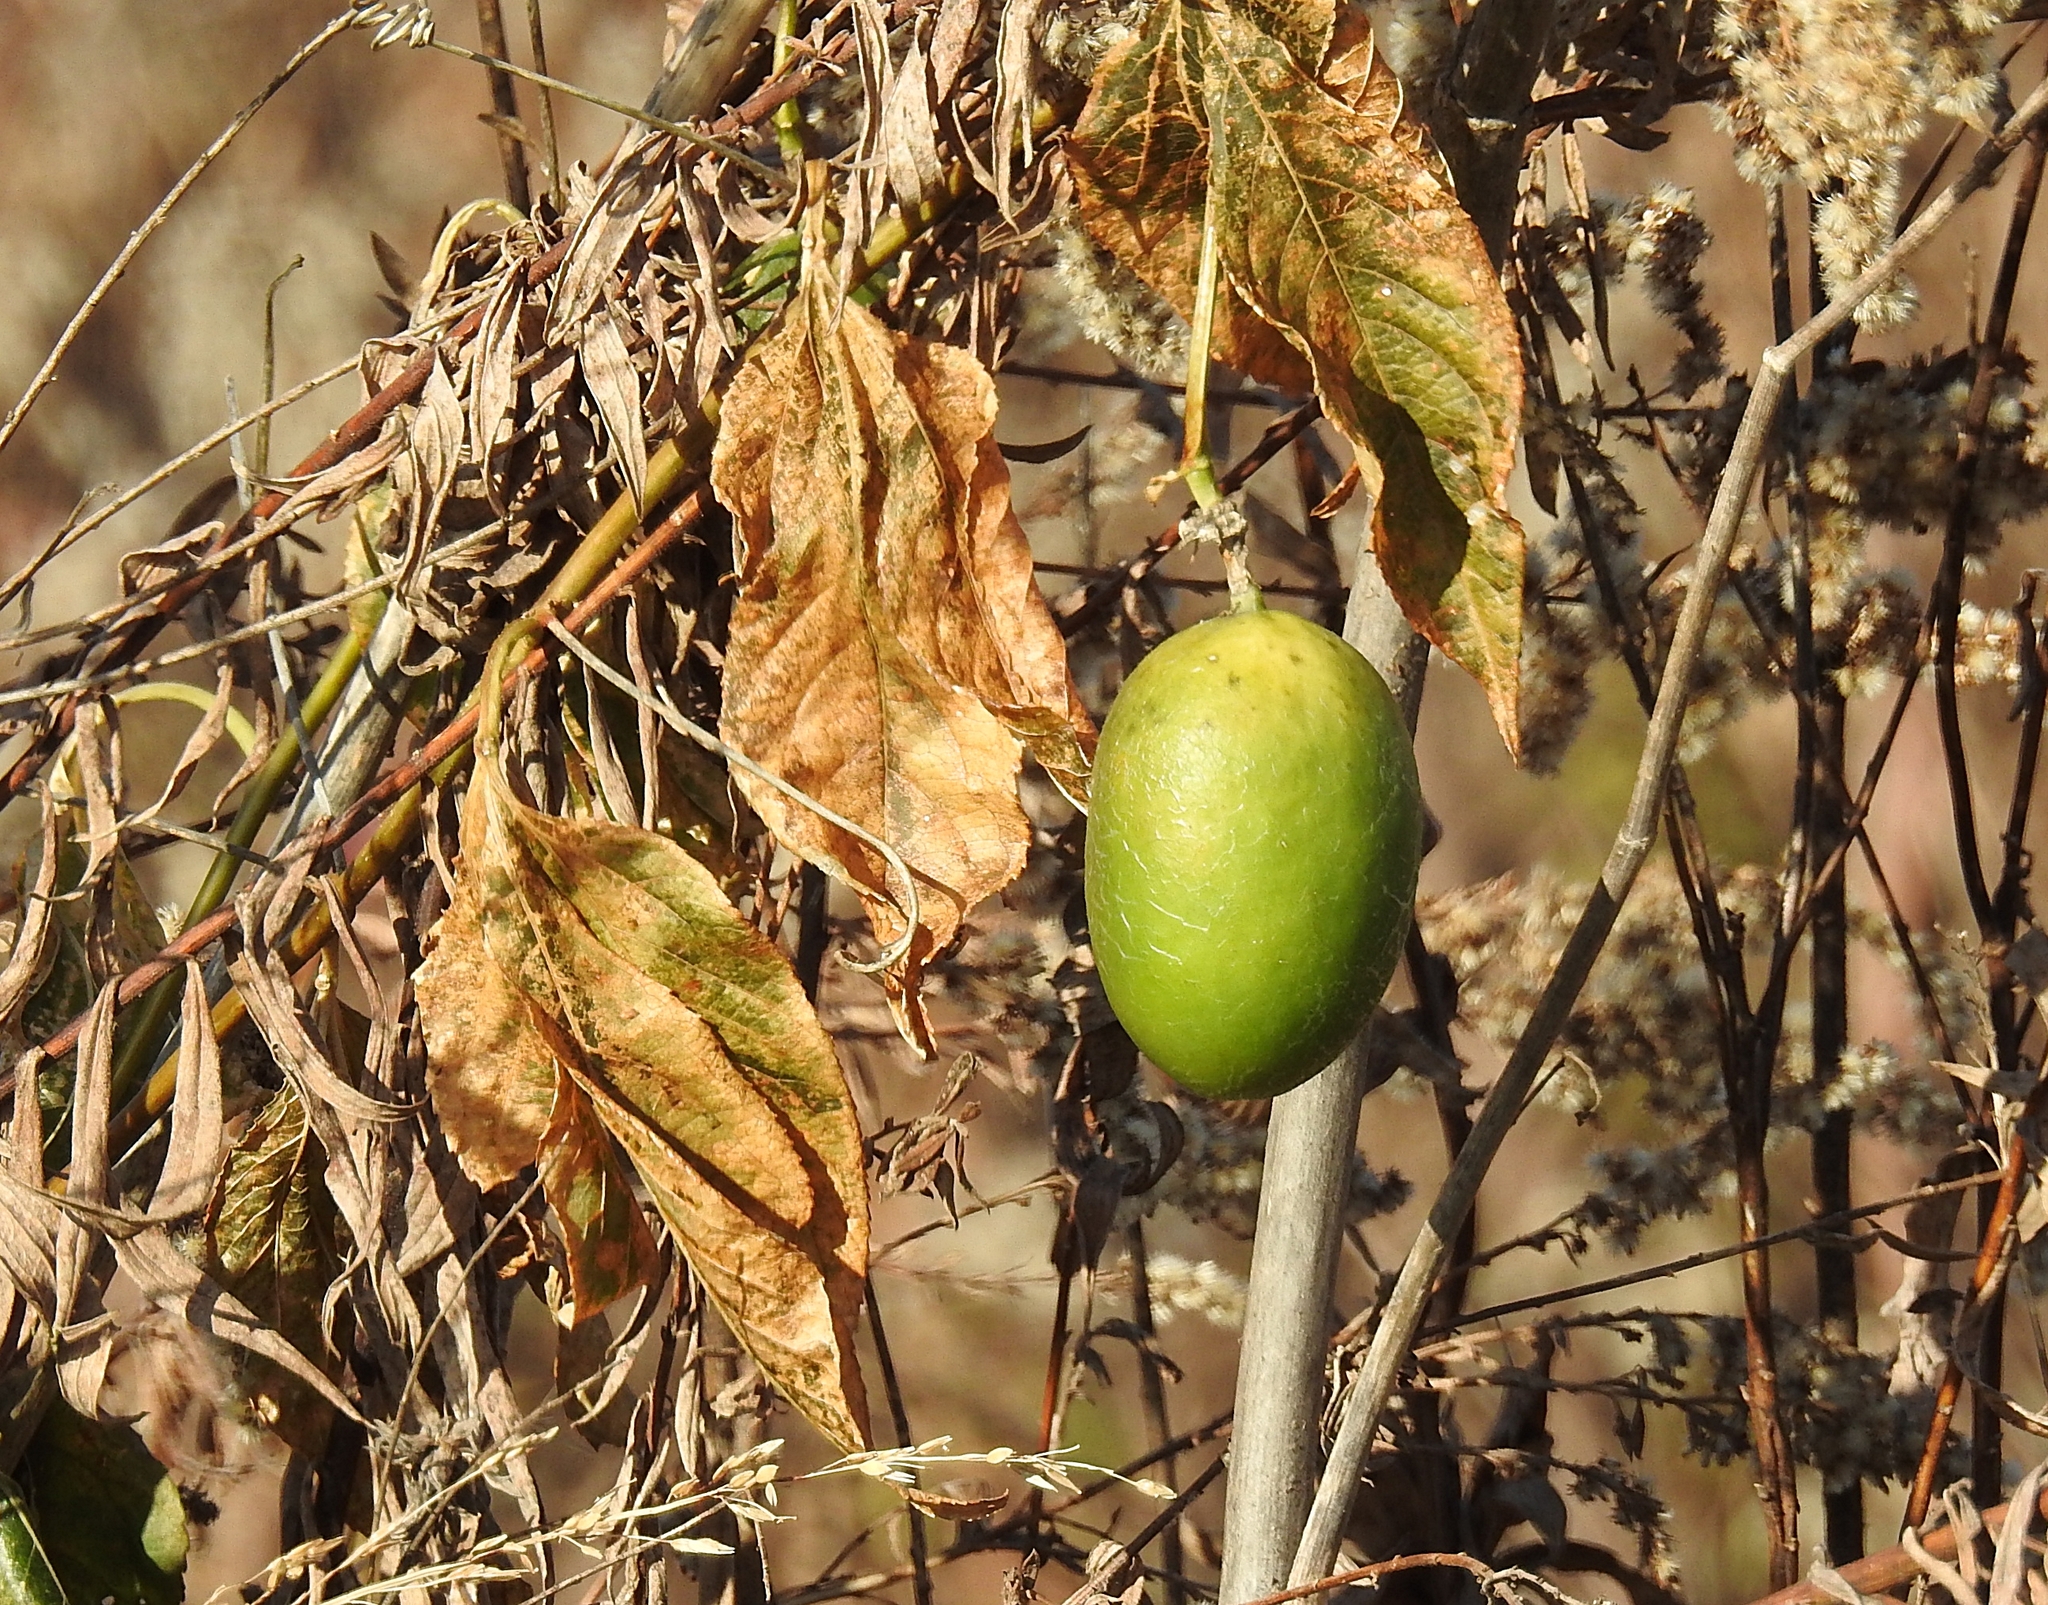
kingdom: Plantae
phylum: Tracheophyta
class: Magnoliopsida
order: Malpighiales
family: Passifloraceae
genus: Passiflora
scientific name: Passiflora incarnata
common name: Apricot-vine
